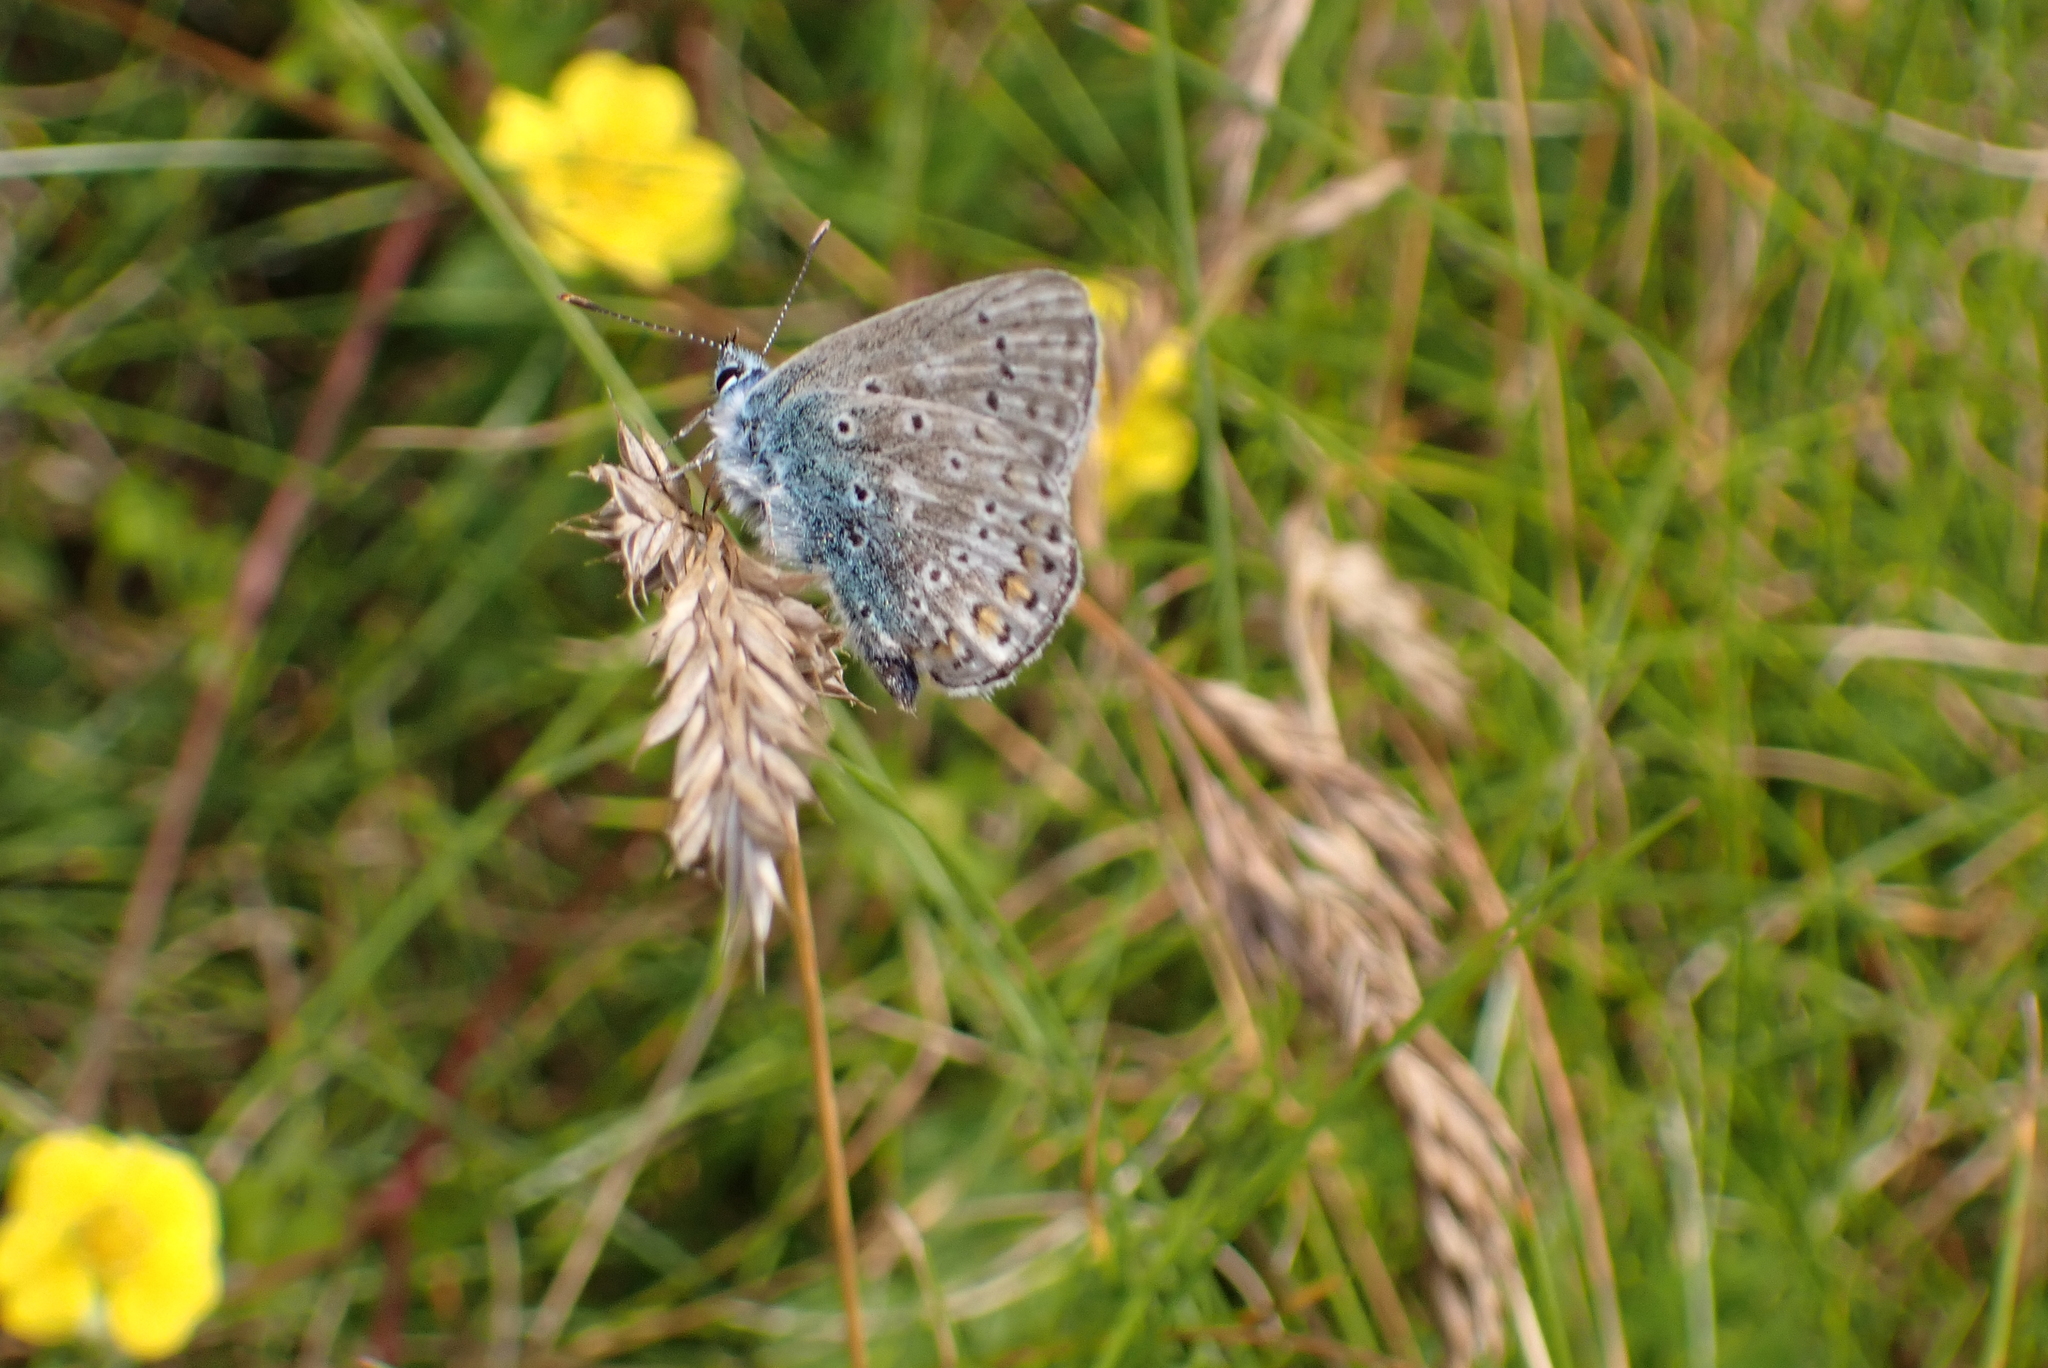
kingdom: Animalia
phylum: Arthropoda
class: Insecta
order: Lepidoptera
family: Lycaenidae
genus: Polyommatus
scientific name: Polyommatus icarus
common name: Common blue
